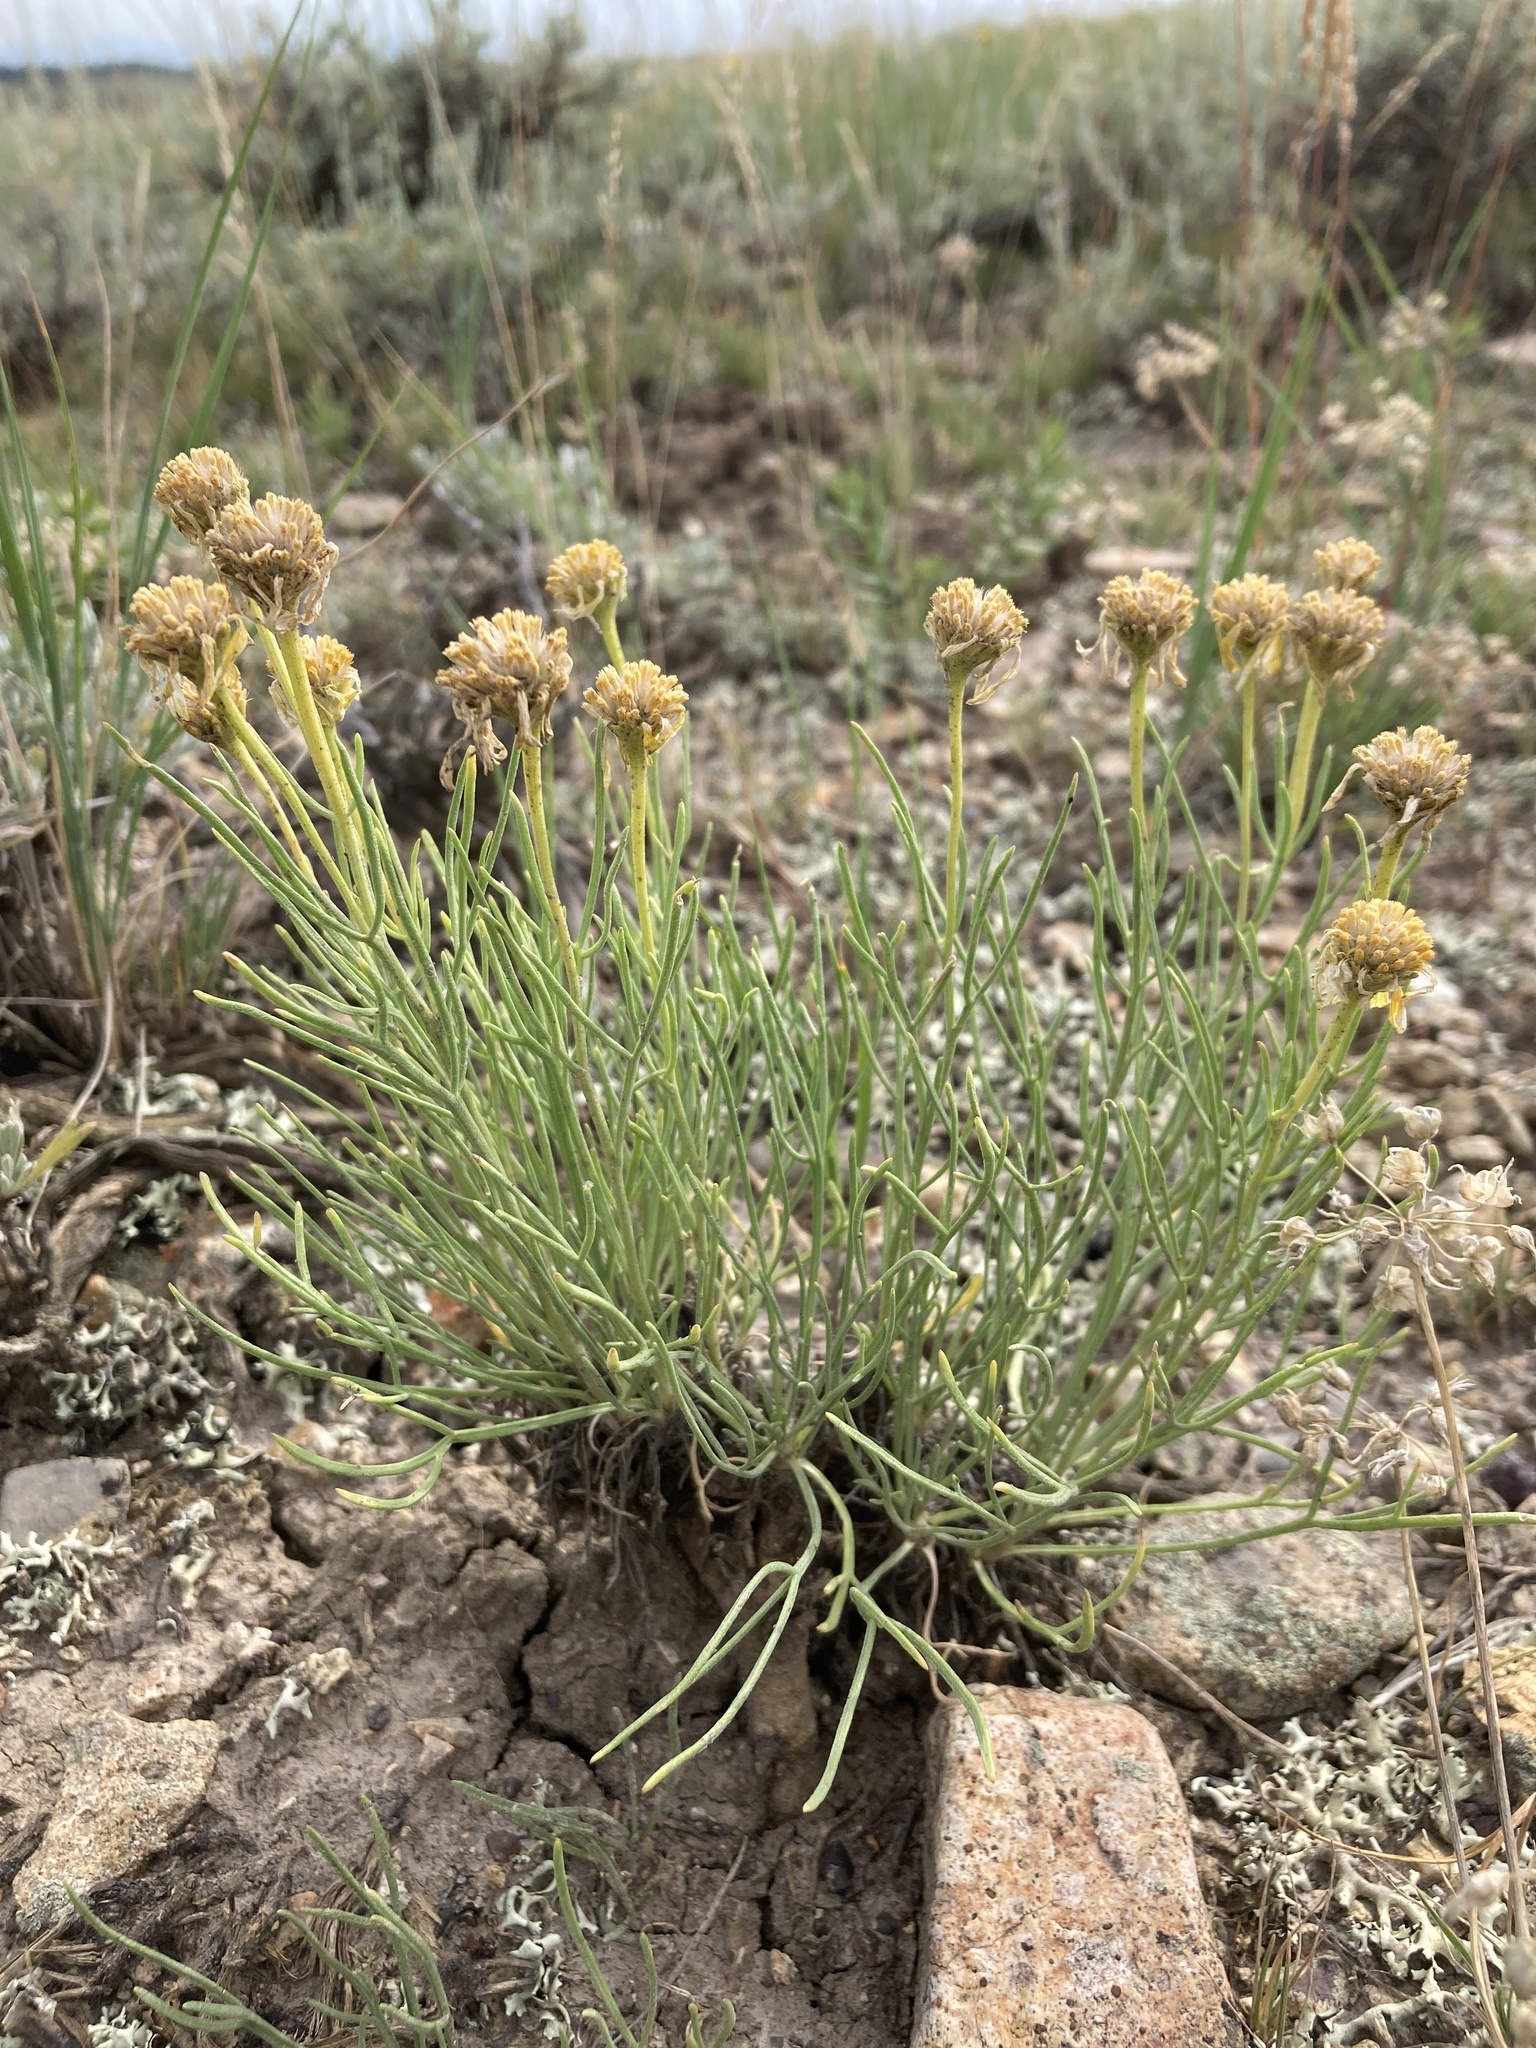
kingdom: Plantae
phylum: Tracheophyta
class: Magnoliopsida
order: Asterales
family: Asteraceae
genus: Hymenoxys
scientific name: Hymenoxys richardsonii
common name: Pingue rubberweed
